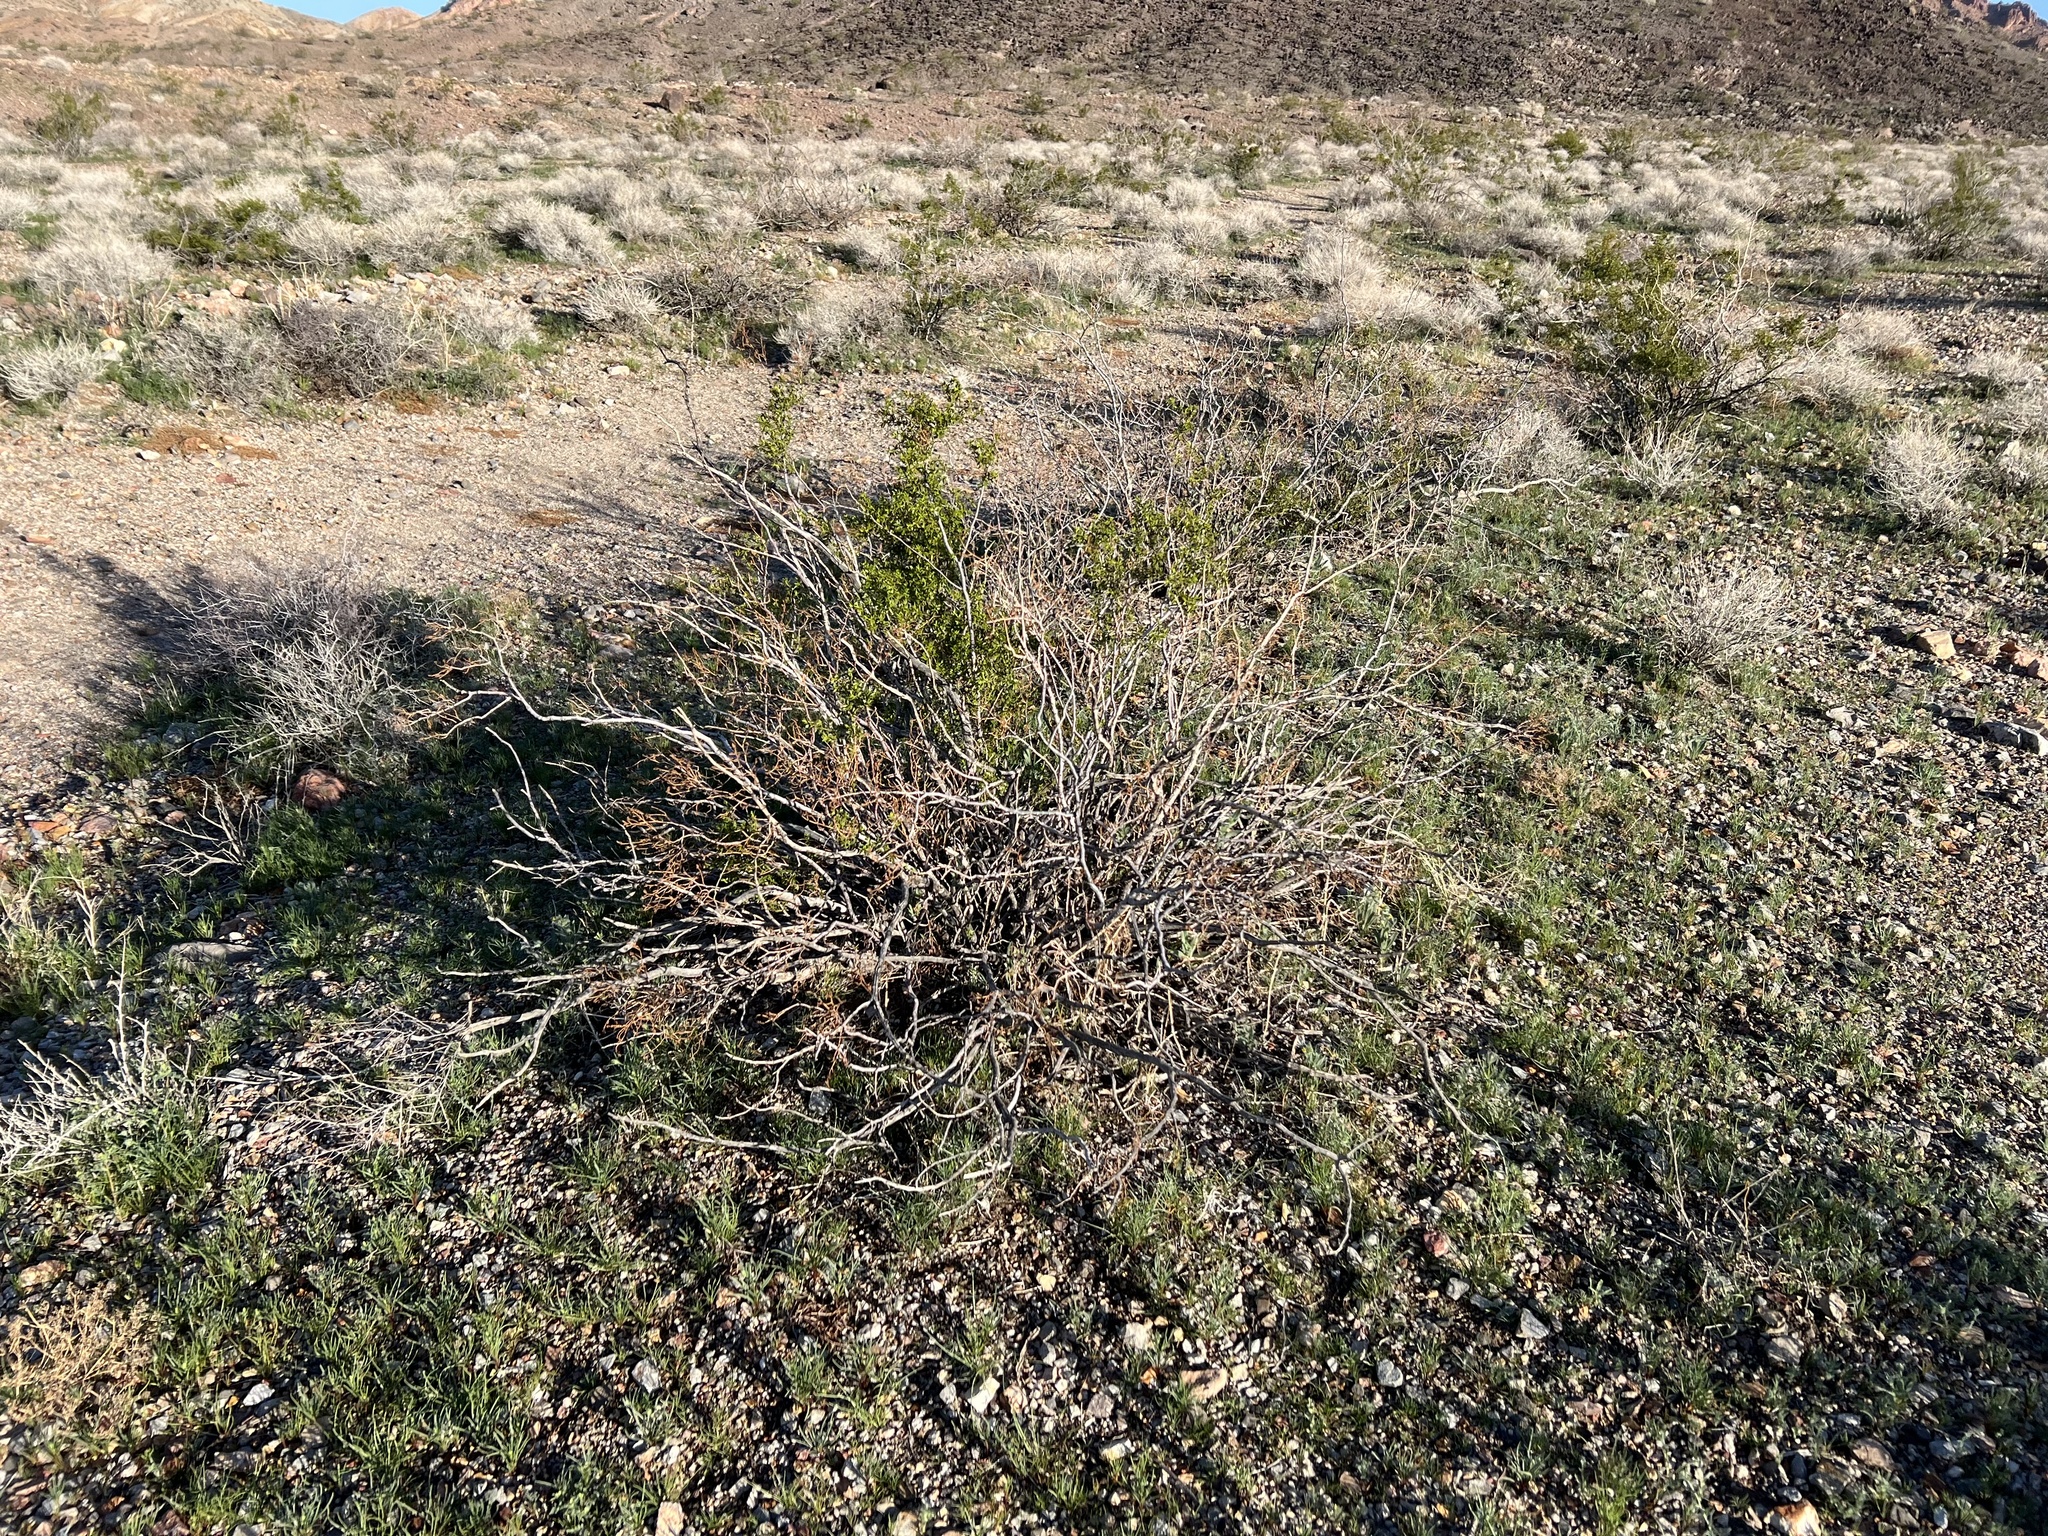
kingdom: Plantae
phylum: Tracheophyta
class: Magnoliopsida
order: Zygophyllales
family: Zygophyllaceae
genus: Larrea
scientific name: Larrea tridentata
